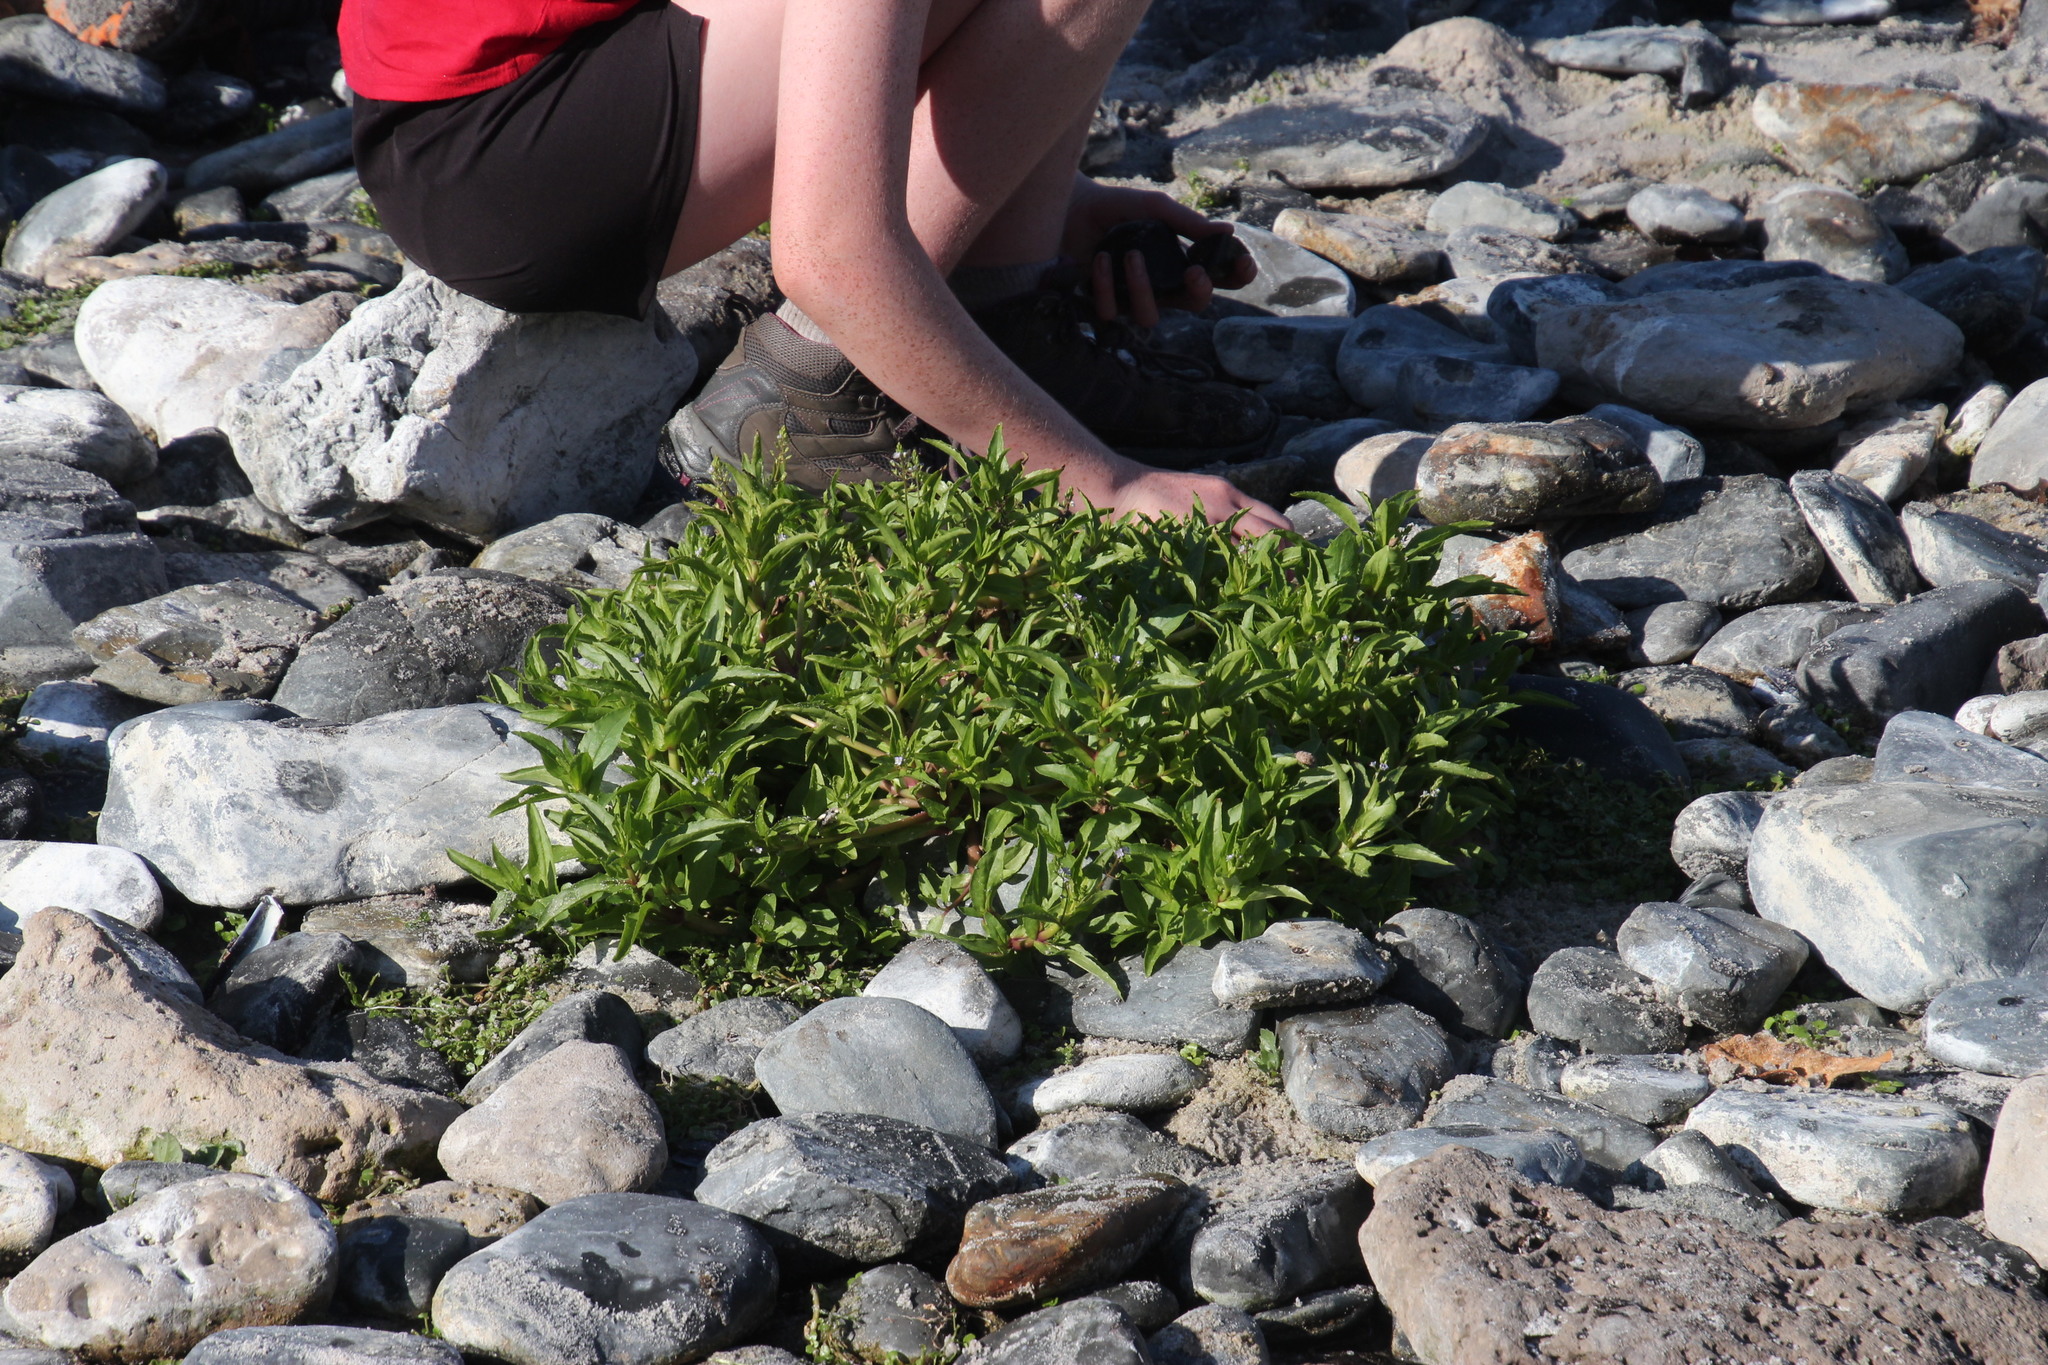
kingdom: Plantae
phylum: Tracheophyta
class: Magnoliopsida
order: Lamiales
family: Plantaginaceae
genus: Veronica
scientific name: Veronica anagallis-aquatica
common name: Water speedwell
